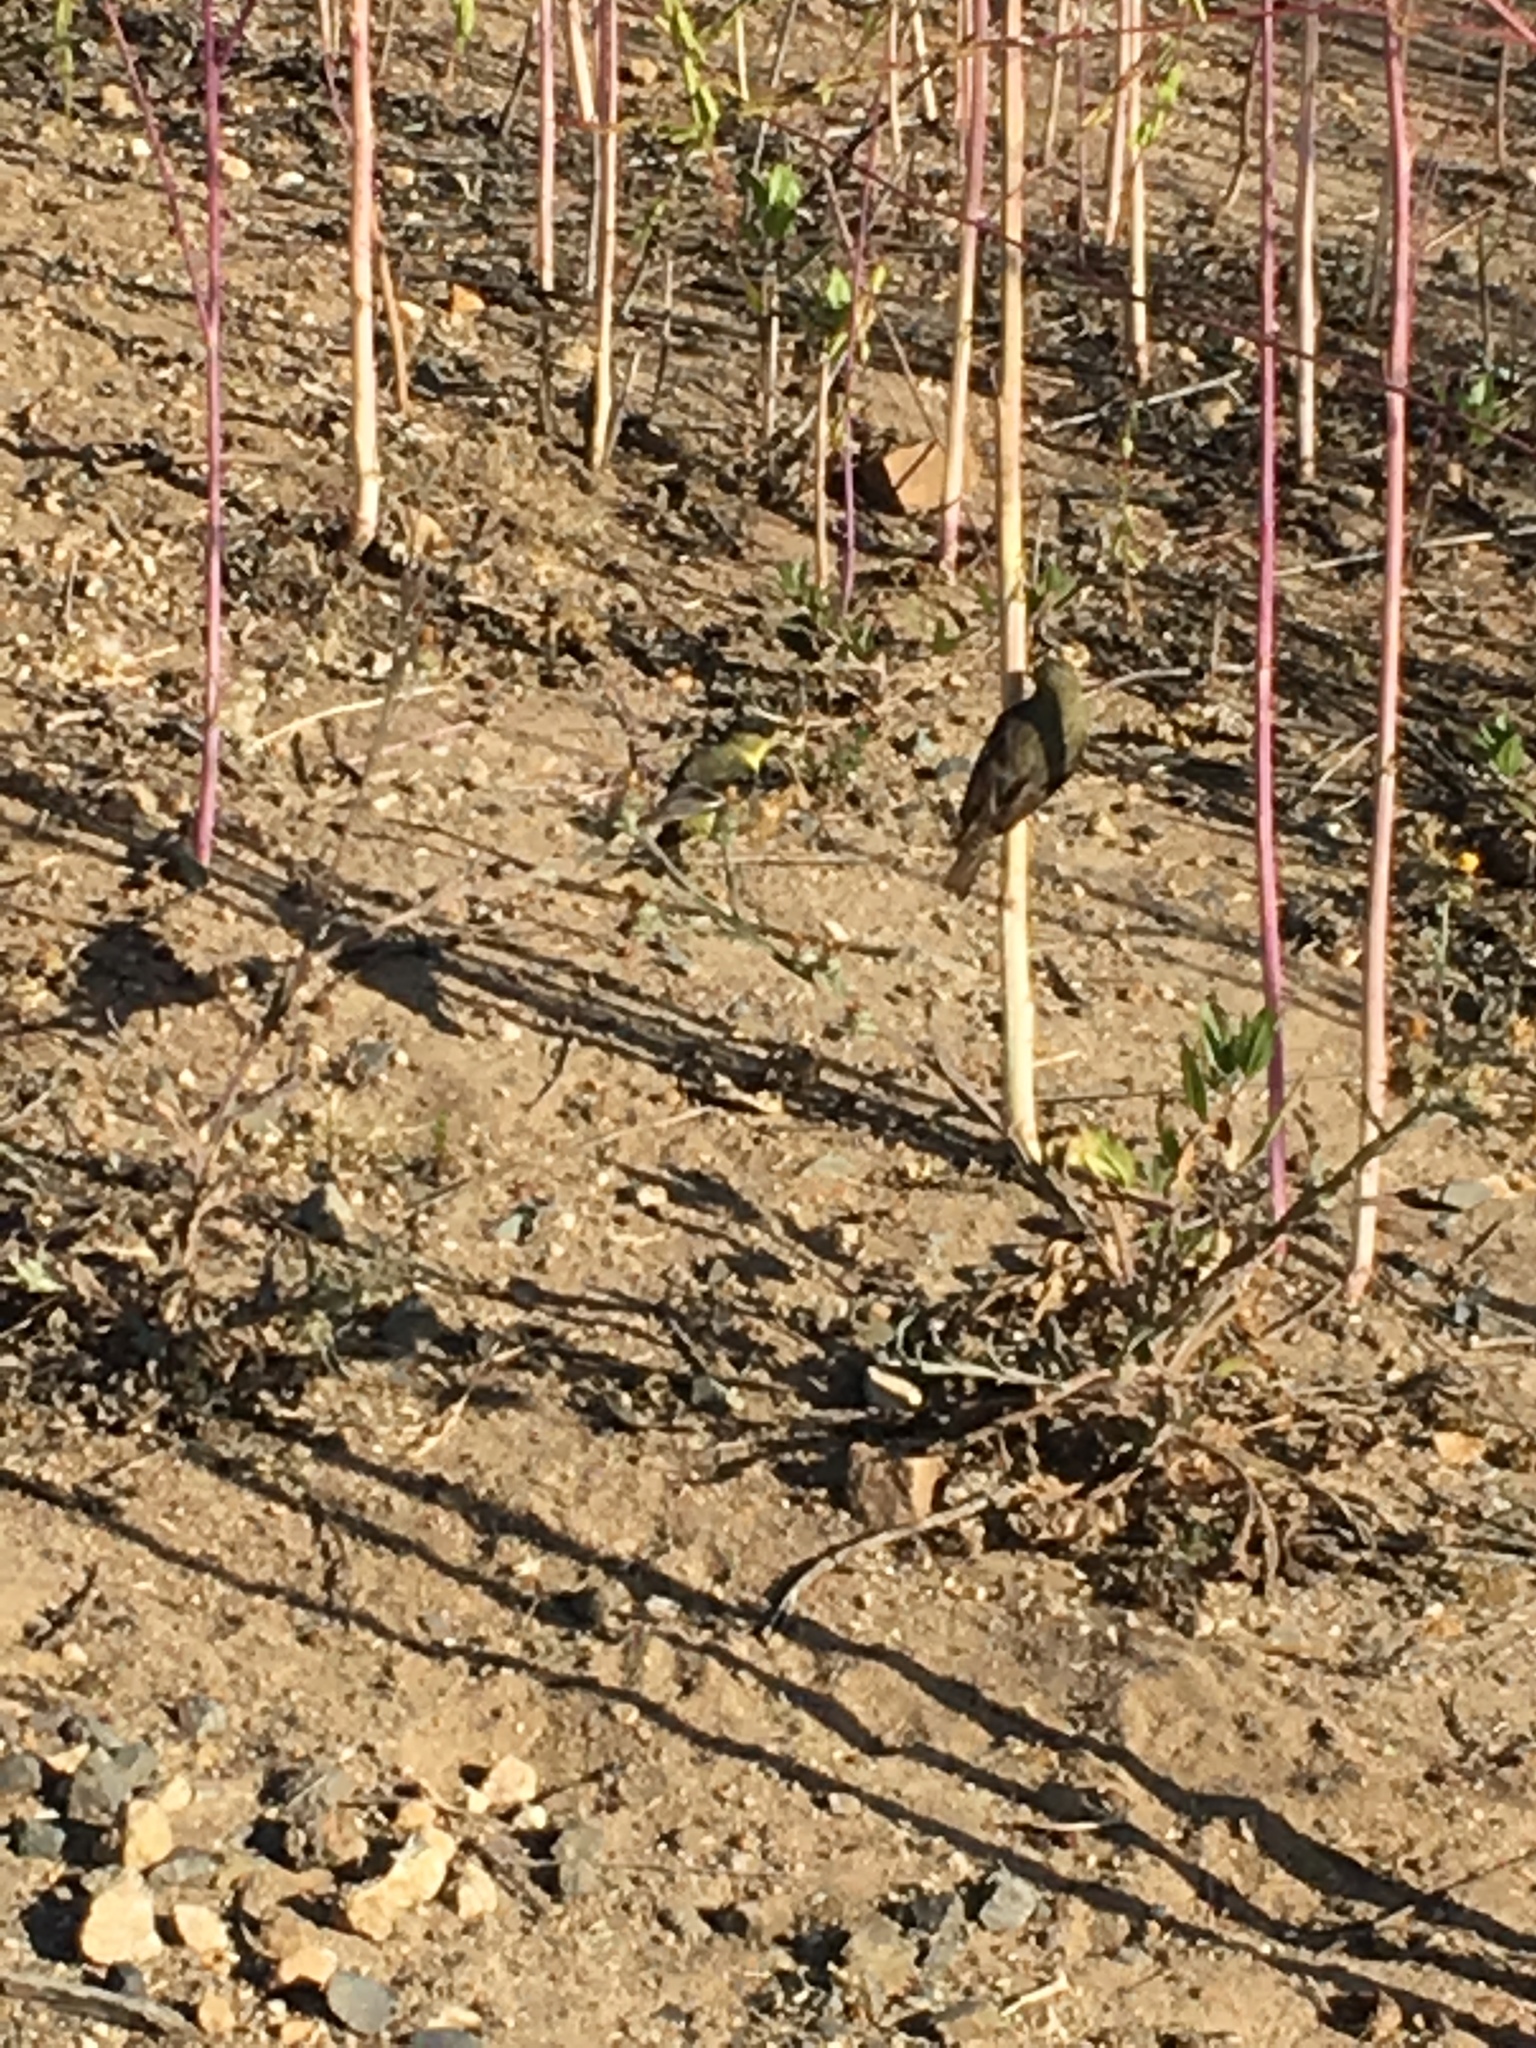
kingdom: Animalia
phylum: Chordata
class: Aves
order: Passeriformes
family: Fringillidae
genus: Spinus
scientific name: Spinus psaltria
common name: Lesser goldfinch
